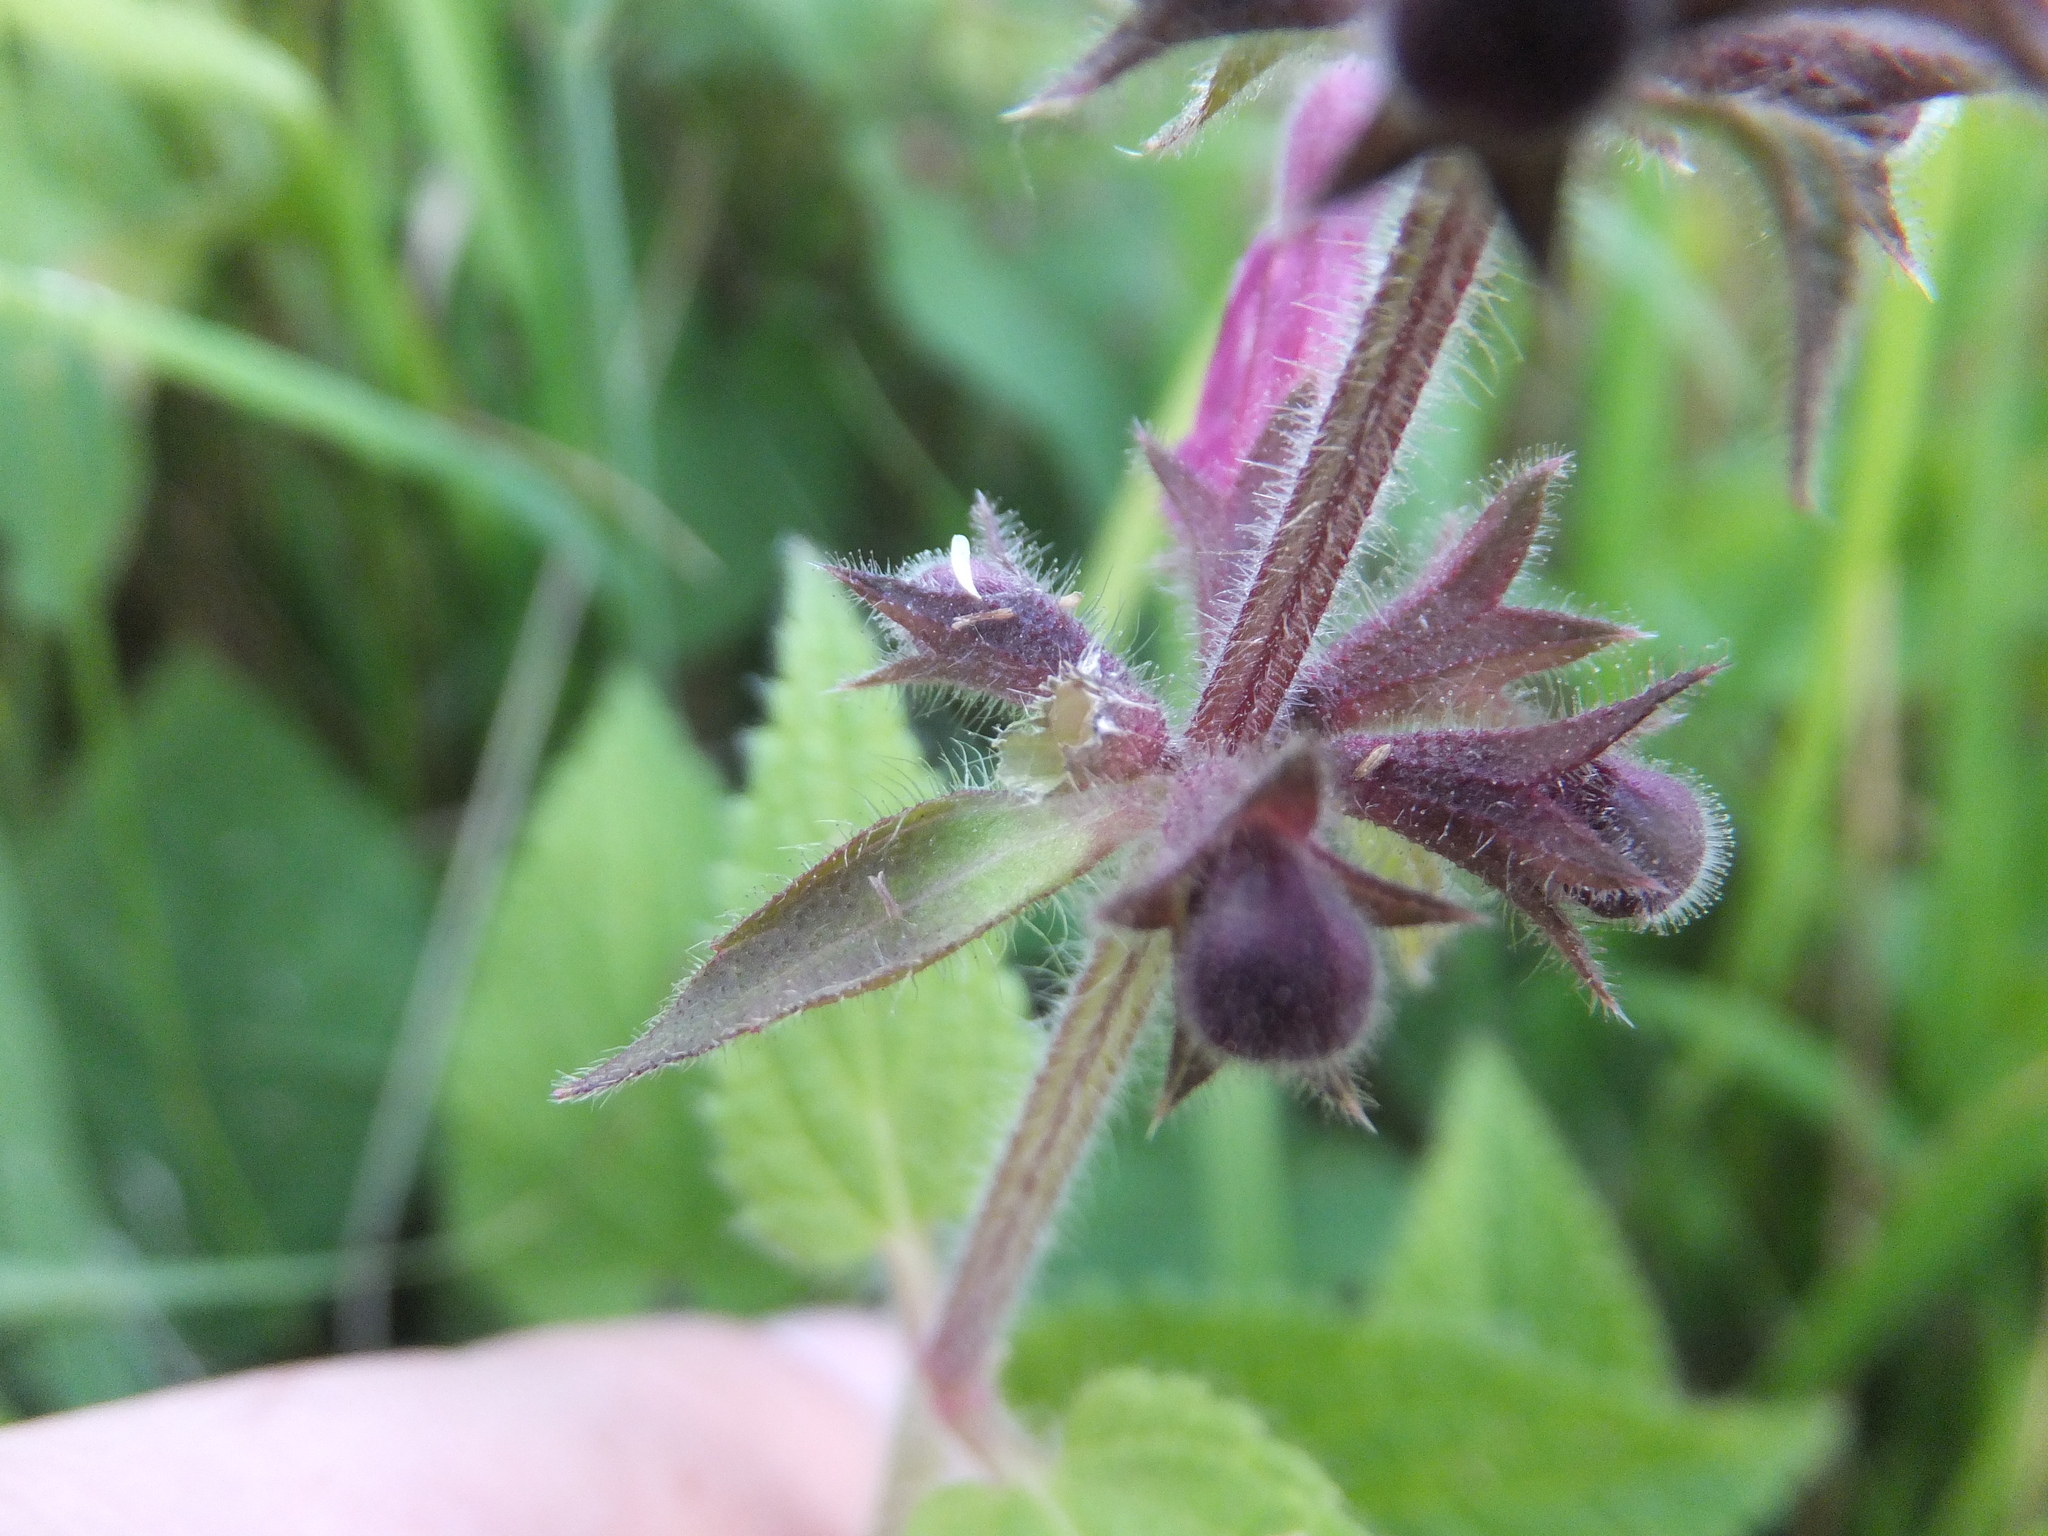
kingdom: Plantae
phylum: Tracheophyta
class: Magnoliopsida
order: Lamiales
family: Lamiaceae
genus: Stachys
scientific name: Stachys sylvatica
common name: Hedge woundwort
